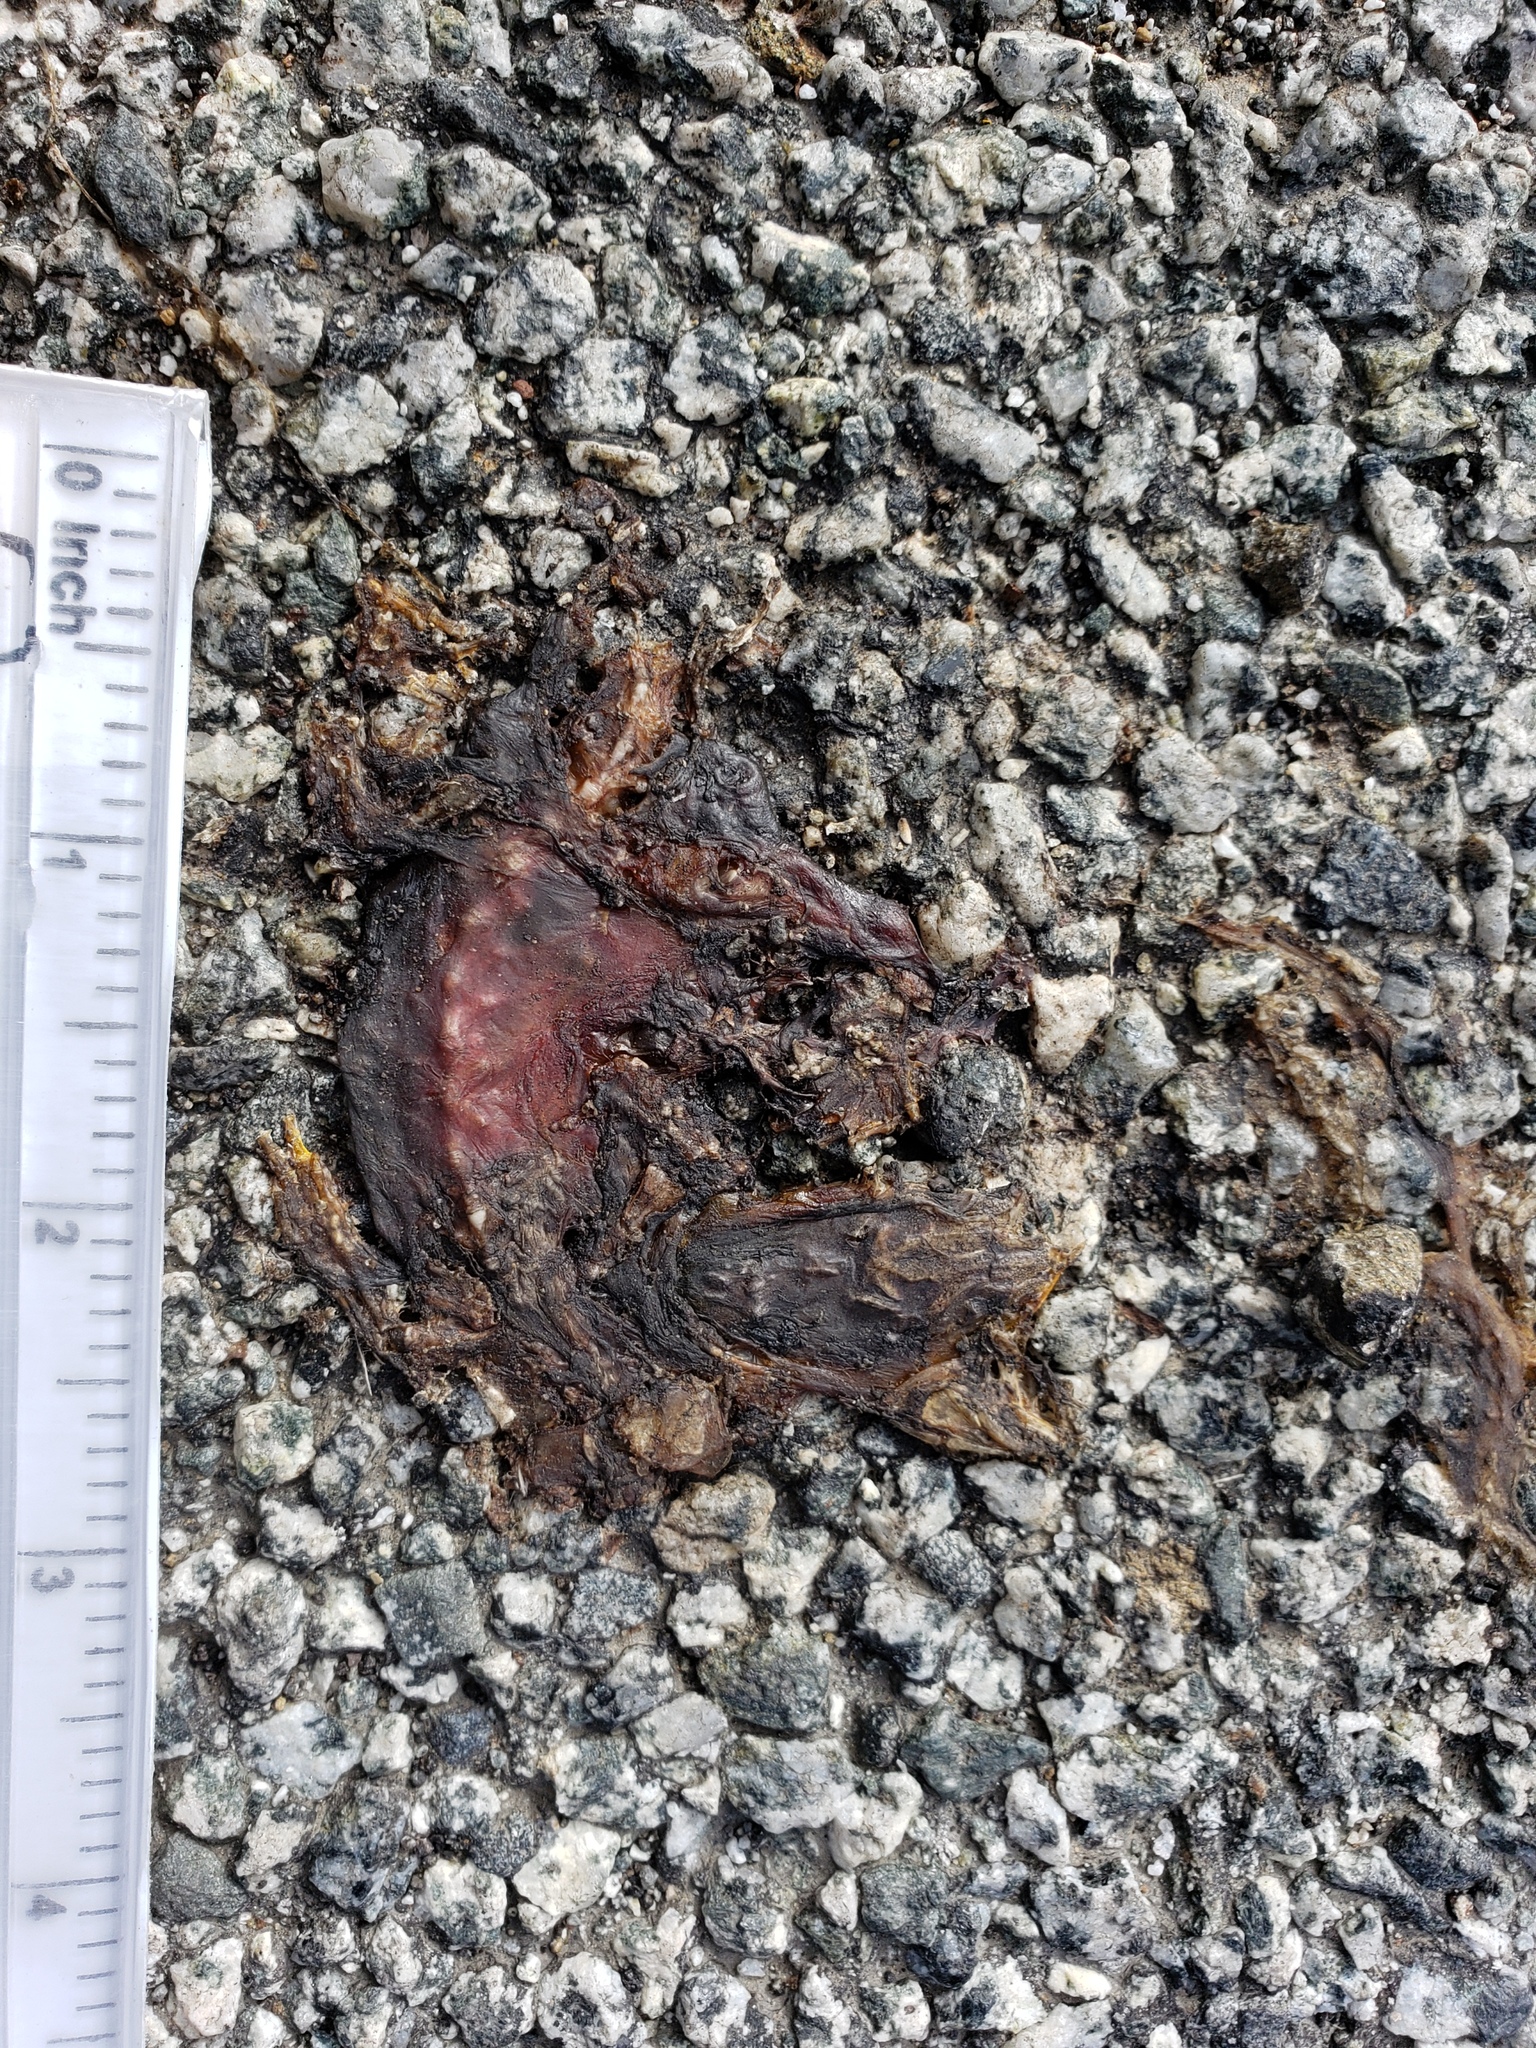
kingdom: Animalia
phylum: Chordata
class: Amphibia
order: Caudata
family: Salamandridae
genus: Taricha
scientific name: Taricha
